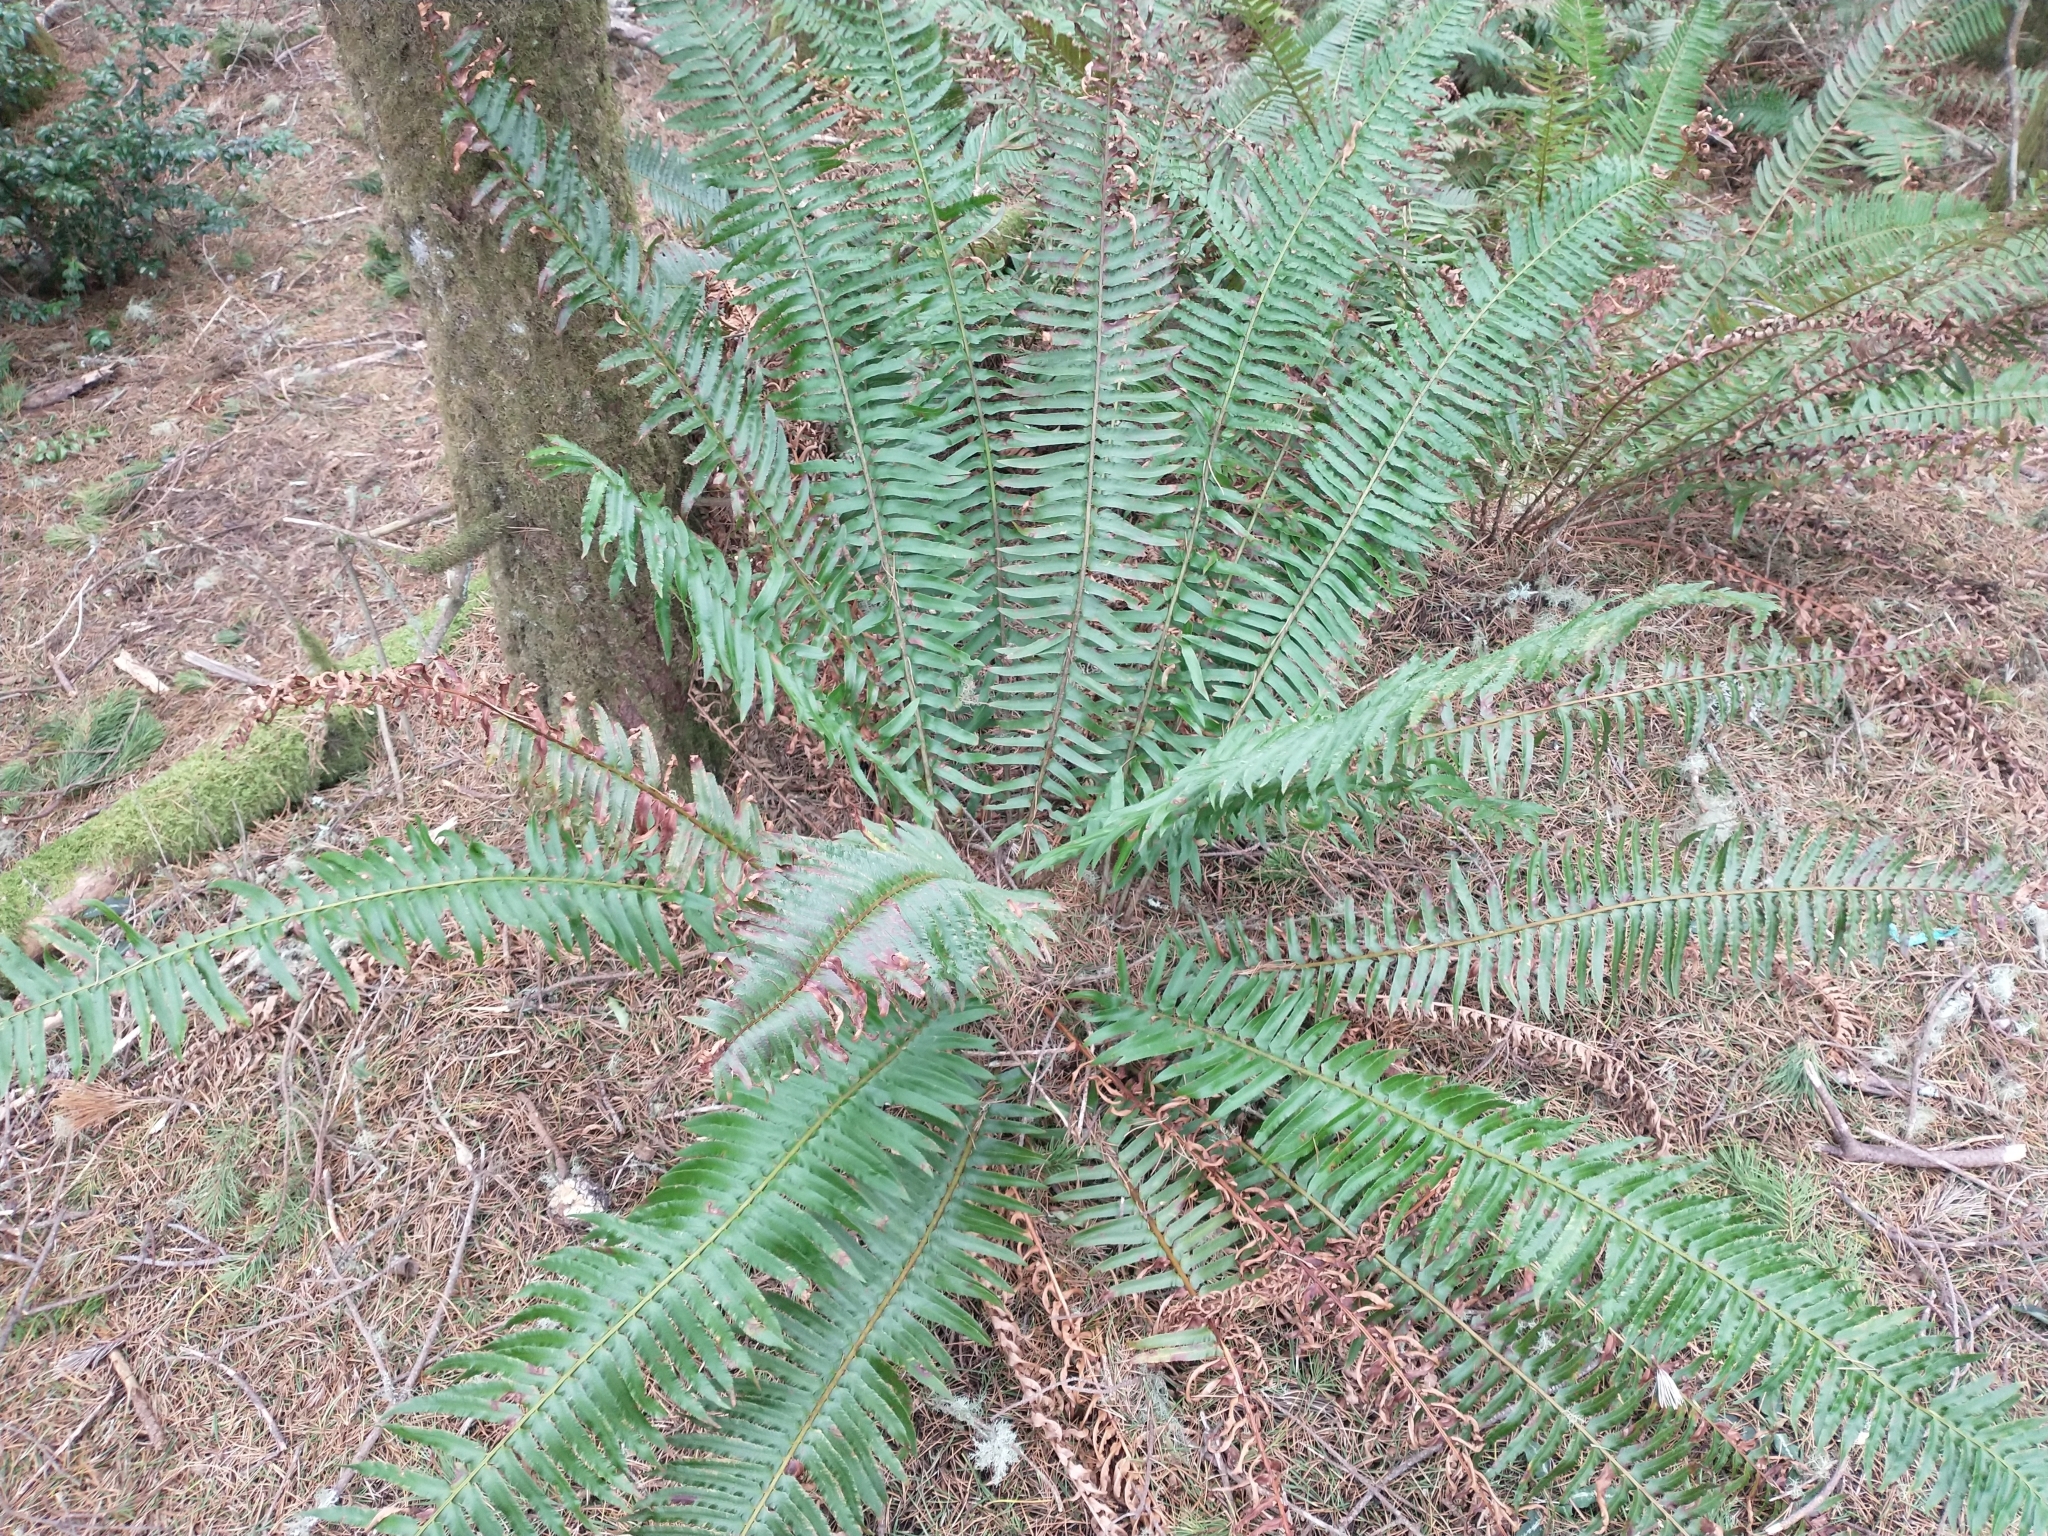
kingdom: Plantae
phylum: Tracheophyta
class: Polypodiopsida
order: Polypodiales
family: Dryopteridaceae
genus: Polystichum
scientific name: Polystichum munitum
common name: Western sword-fern
